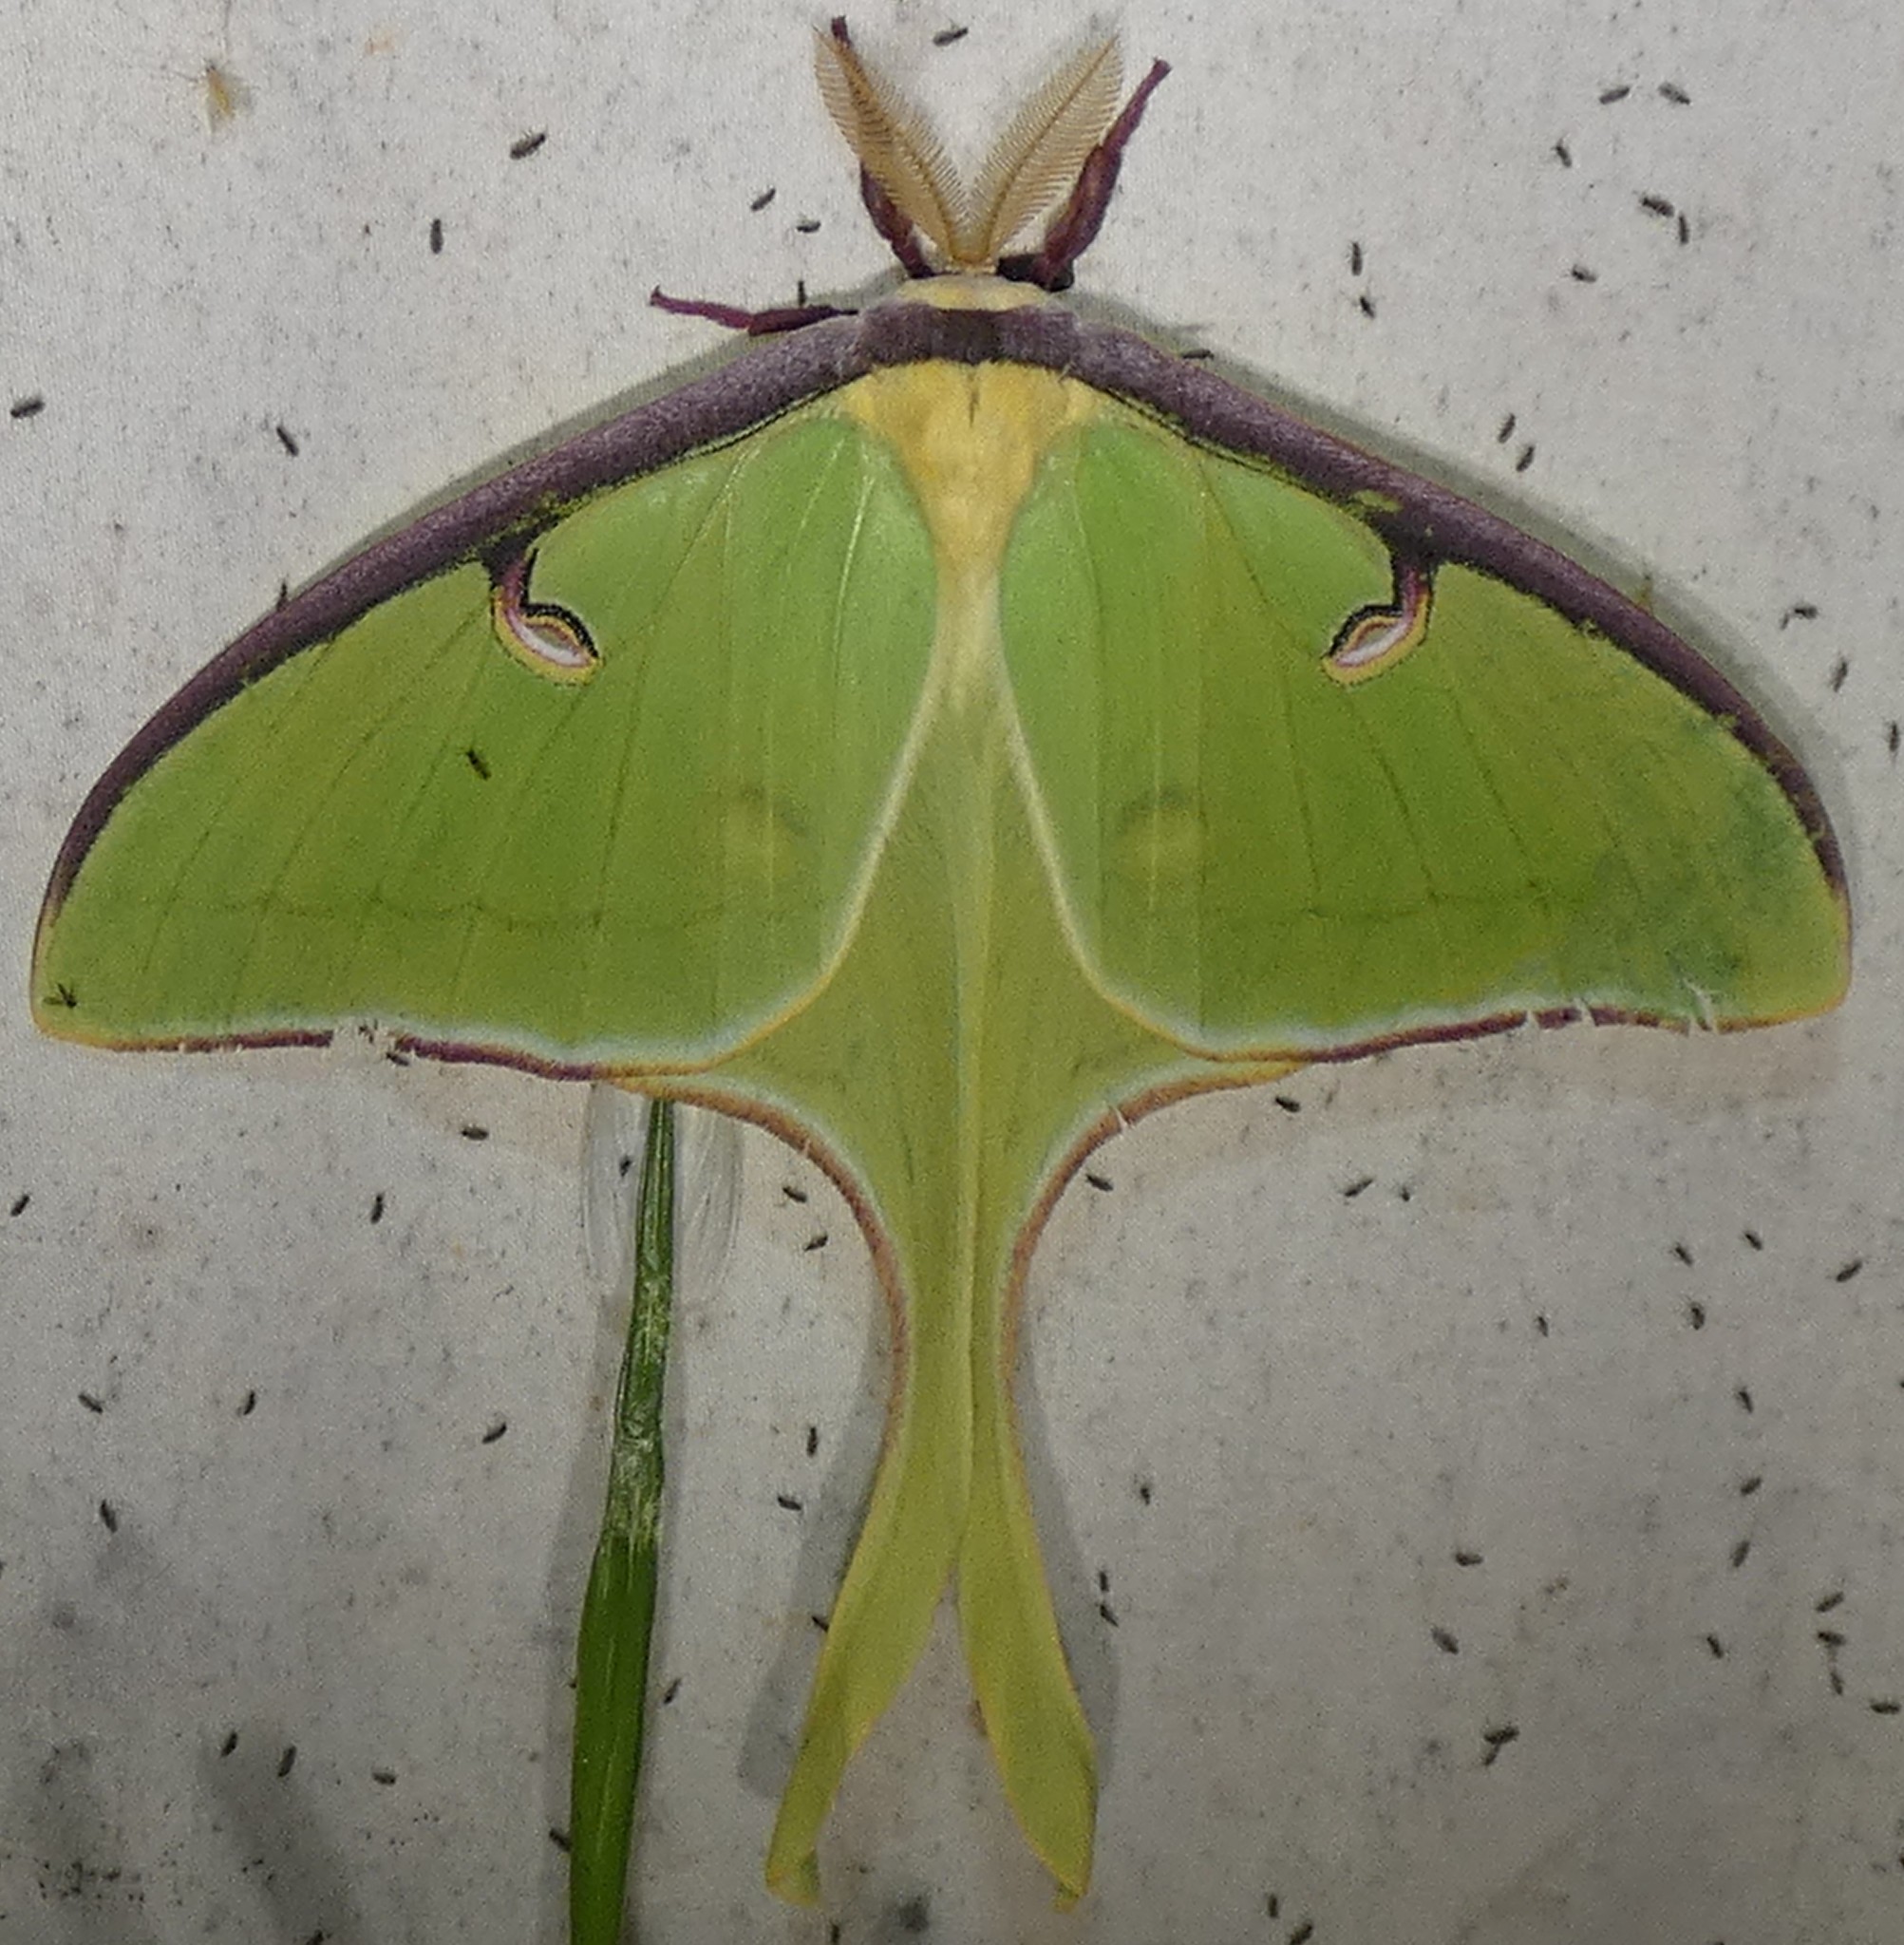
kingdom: Animalia
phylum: Arthropoda
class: Insecta
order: Lepidoptera
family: Saturniidae
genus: Actias
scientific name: Actias luna
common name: Luna moth
